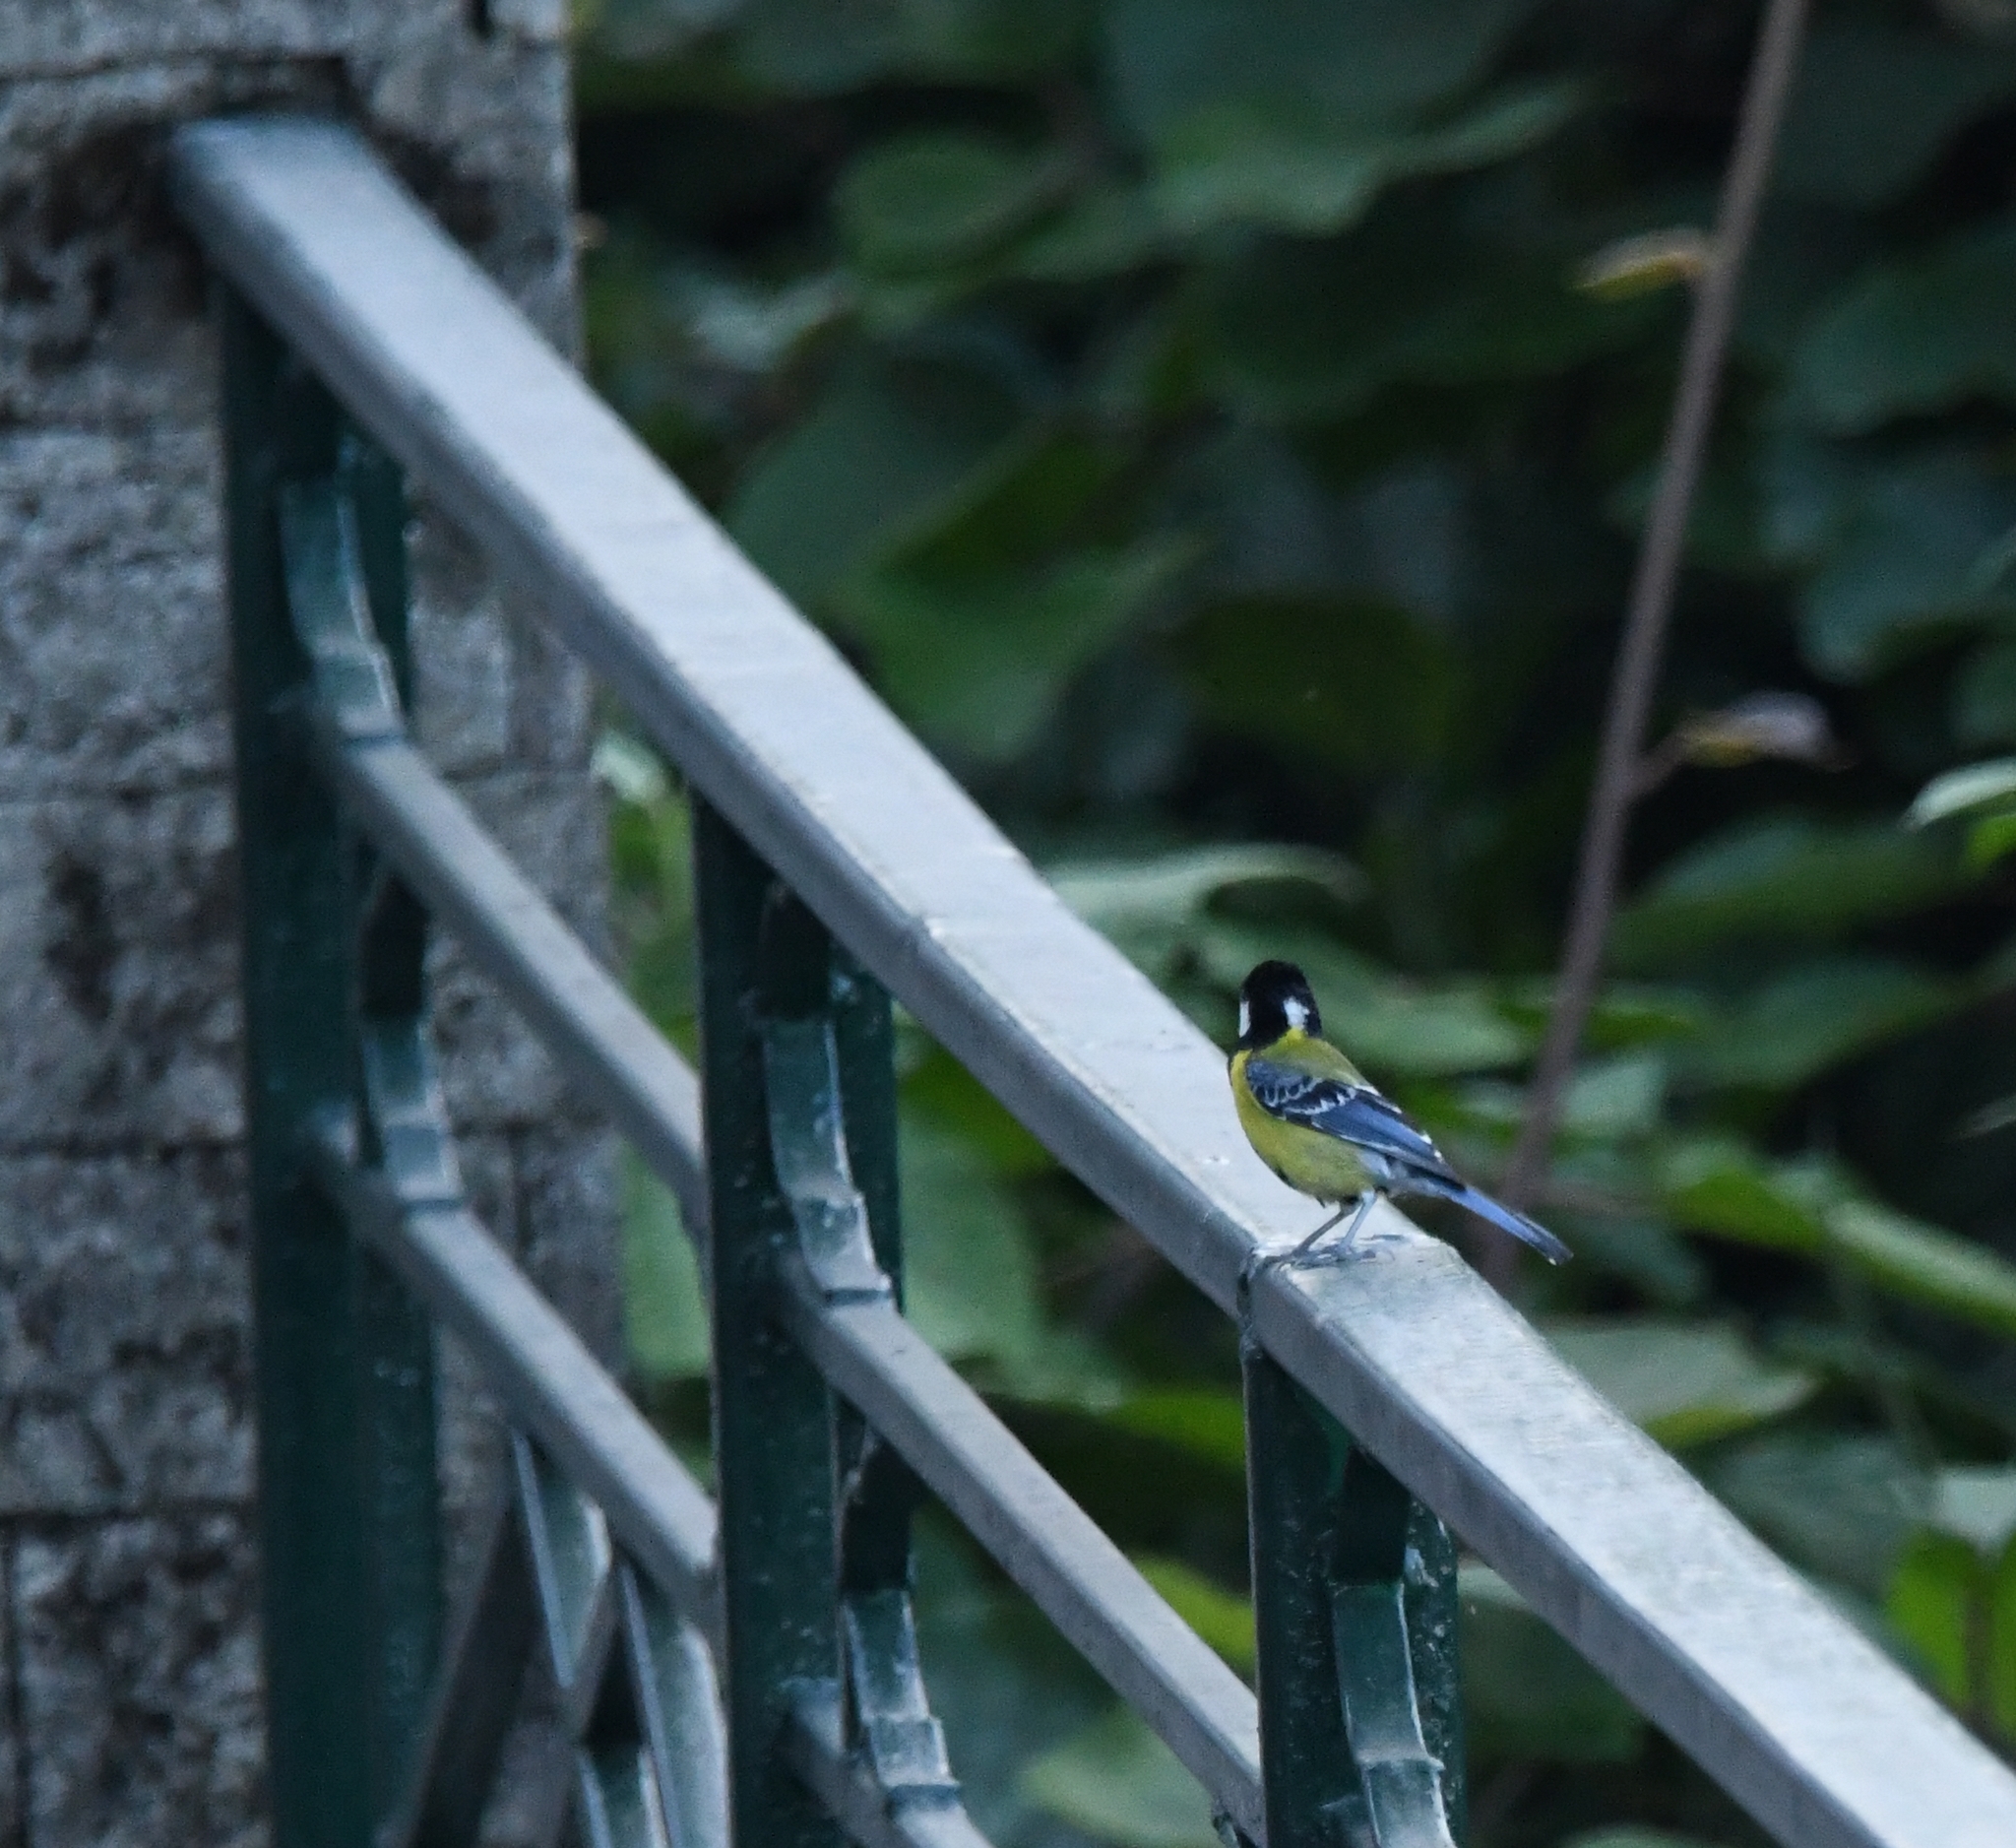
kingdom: Animalia
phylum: Chordata
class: Aves
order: Passeriformes
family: Paridae
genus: Parus
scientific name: Parus monticolus
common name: Green-backed tit
